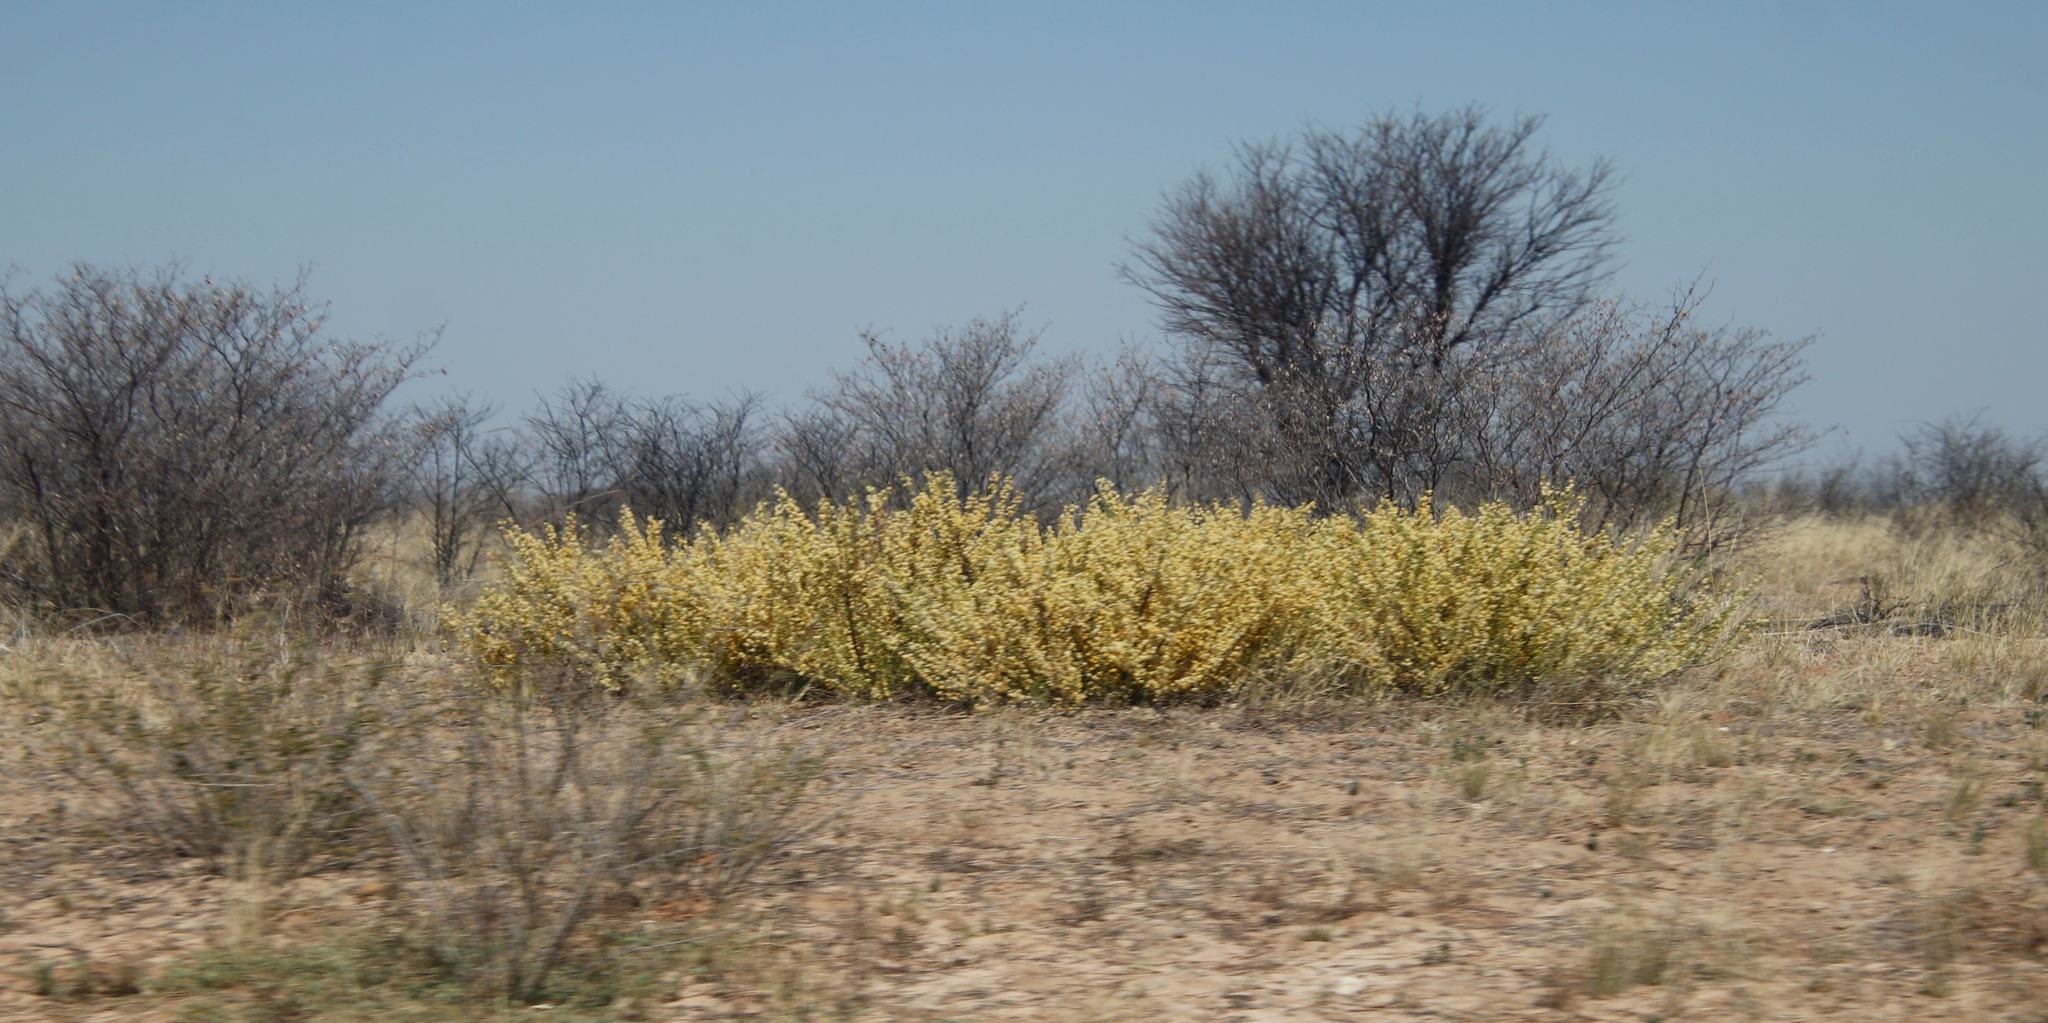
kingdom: Plantae
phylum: Tracheophyta
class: Magnoliopsida
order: Fabales
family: Fabaceae
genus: Vachellia
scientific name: Vachellia hebeclada
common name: Candle thorn
